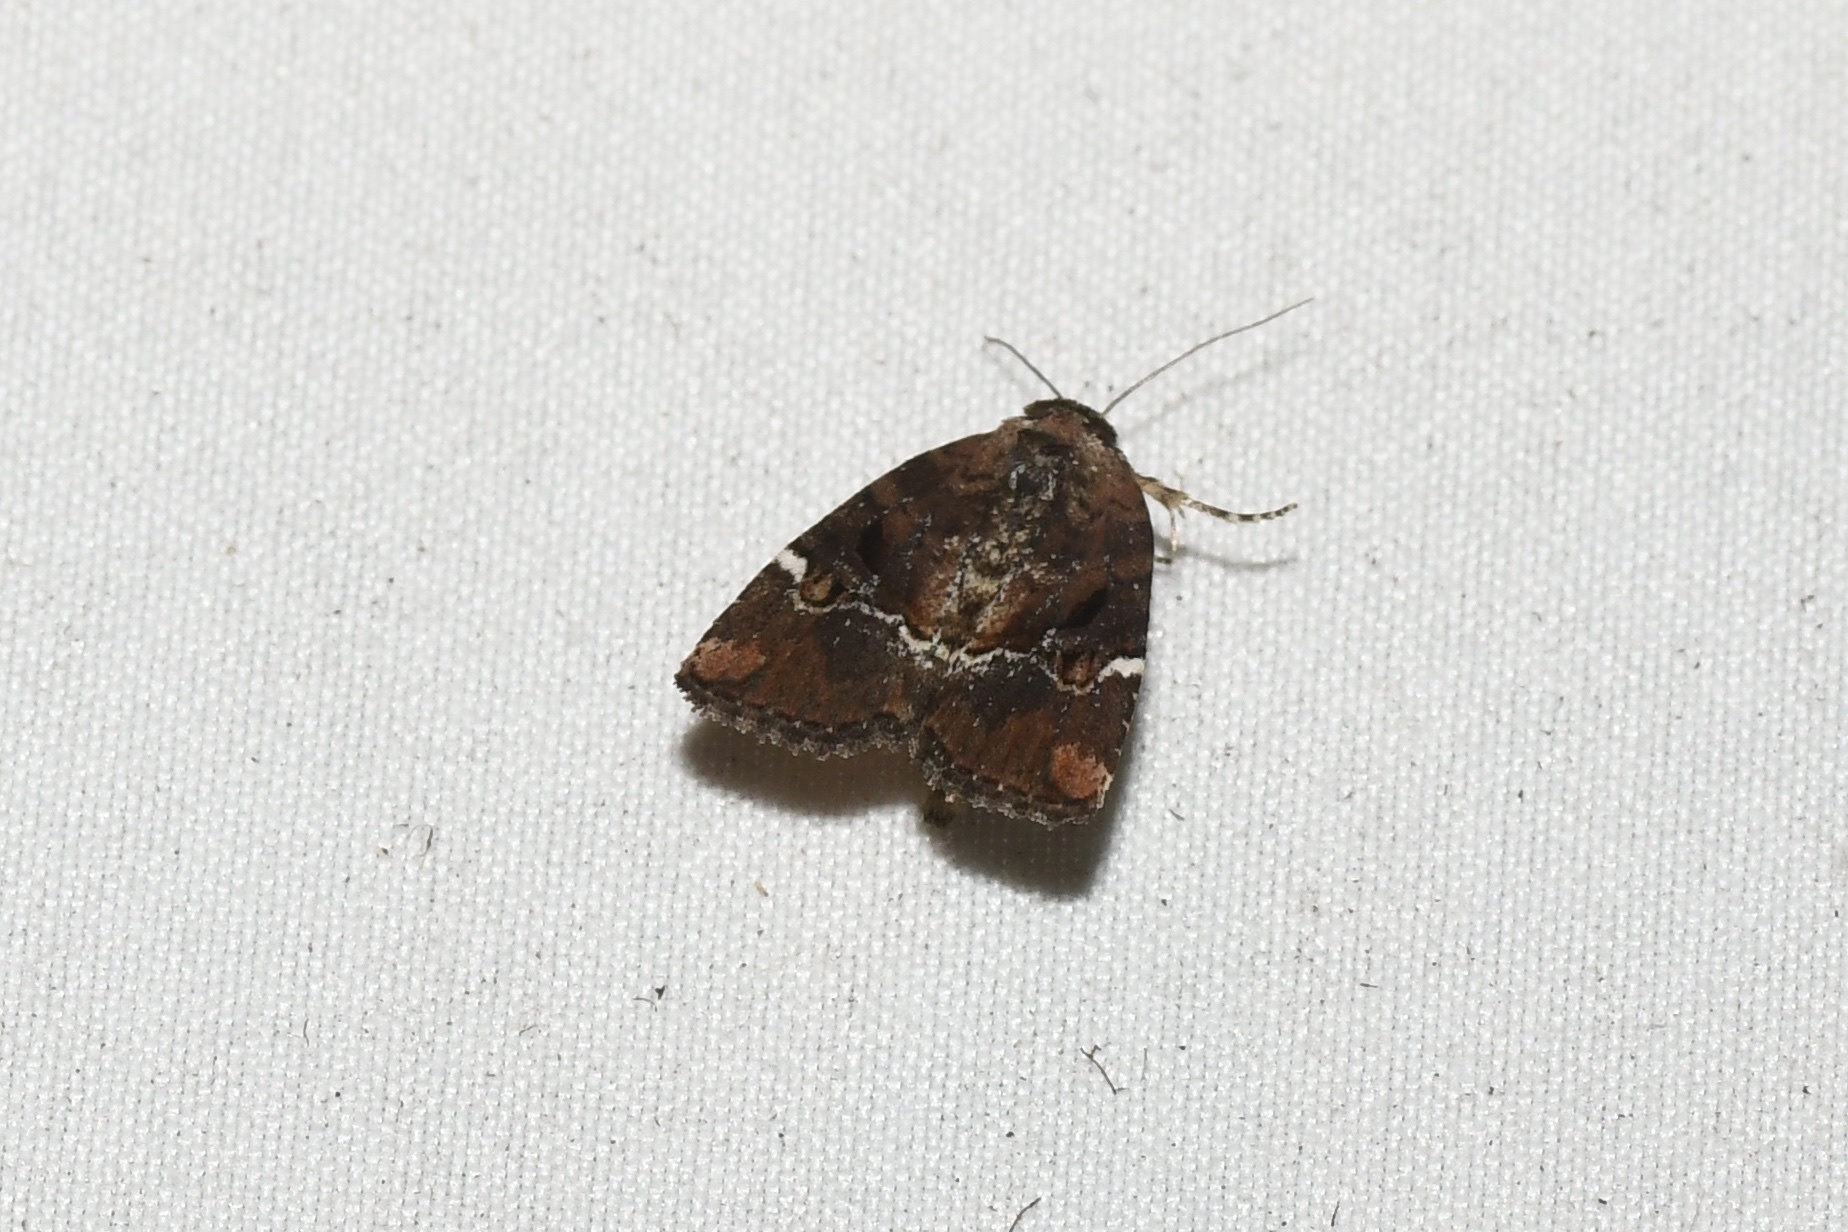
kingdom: Animalia
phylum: Arthropoda
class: Insecta
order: Lepidoptera
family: Noctuidae
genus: Elaphria
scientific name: Elaphria versicolor
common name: Fir harlequin
